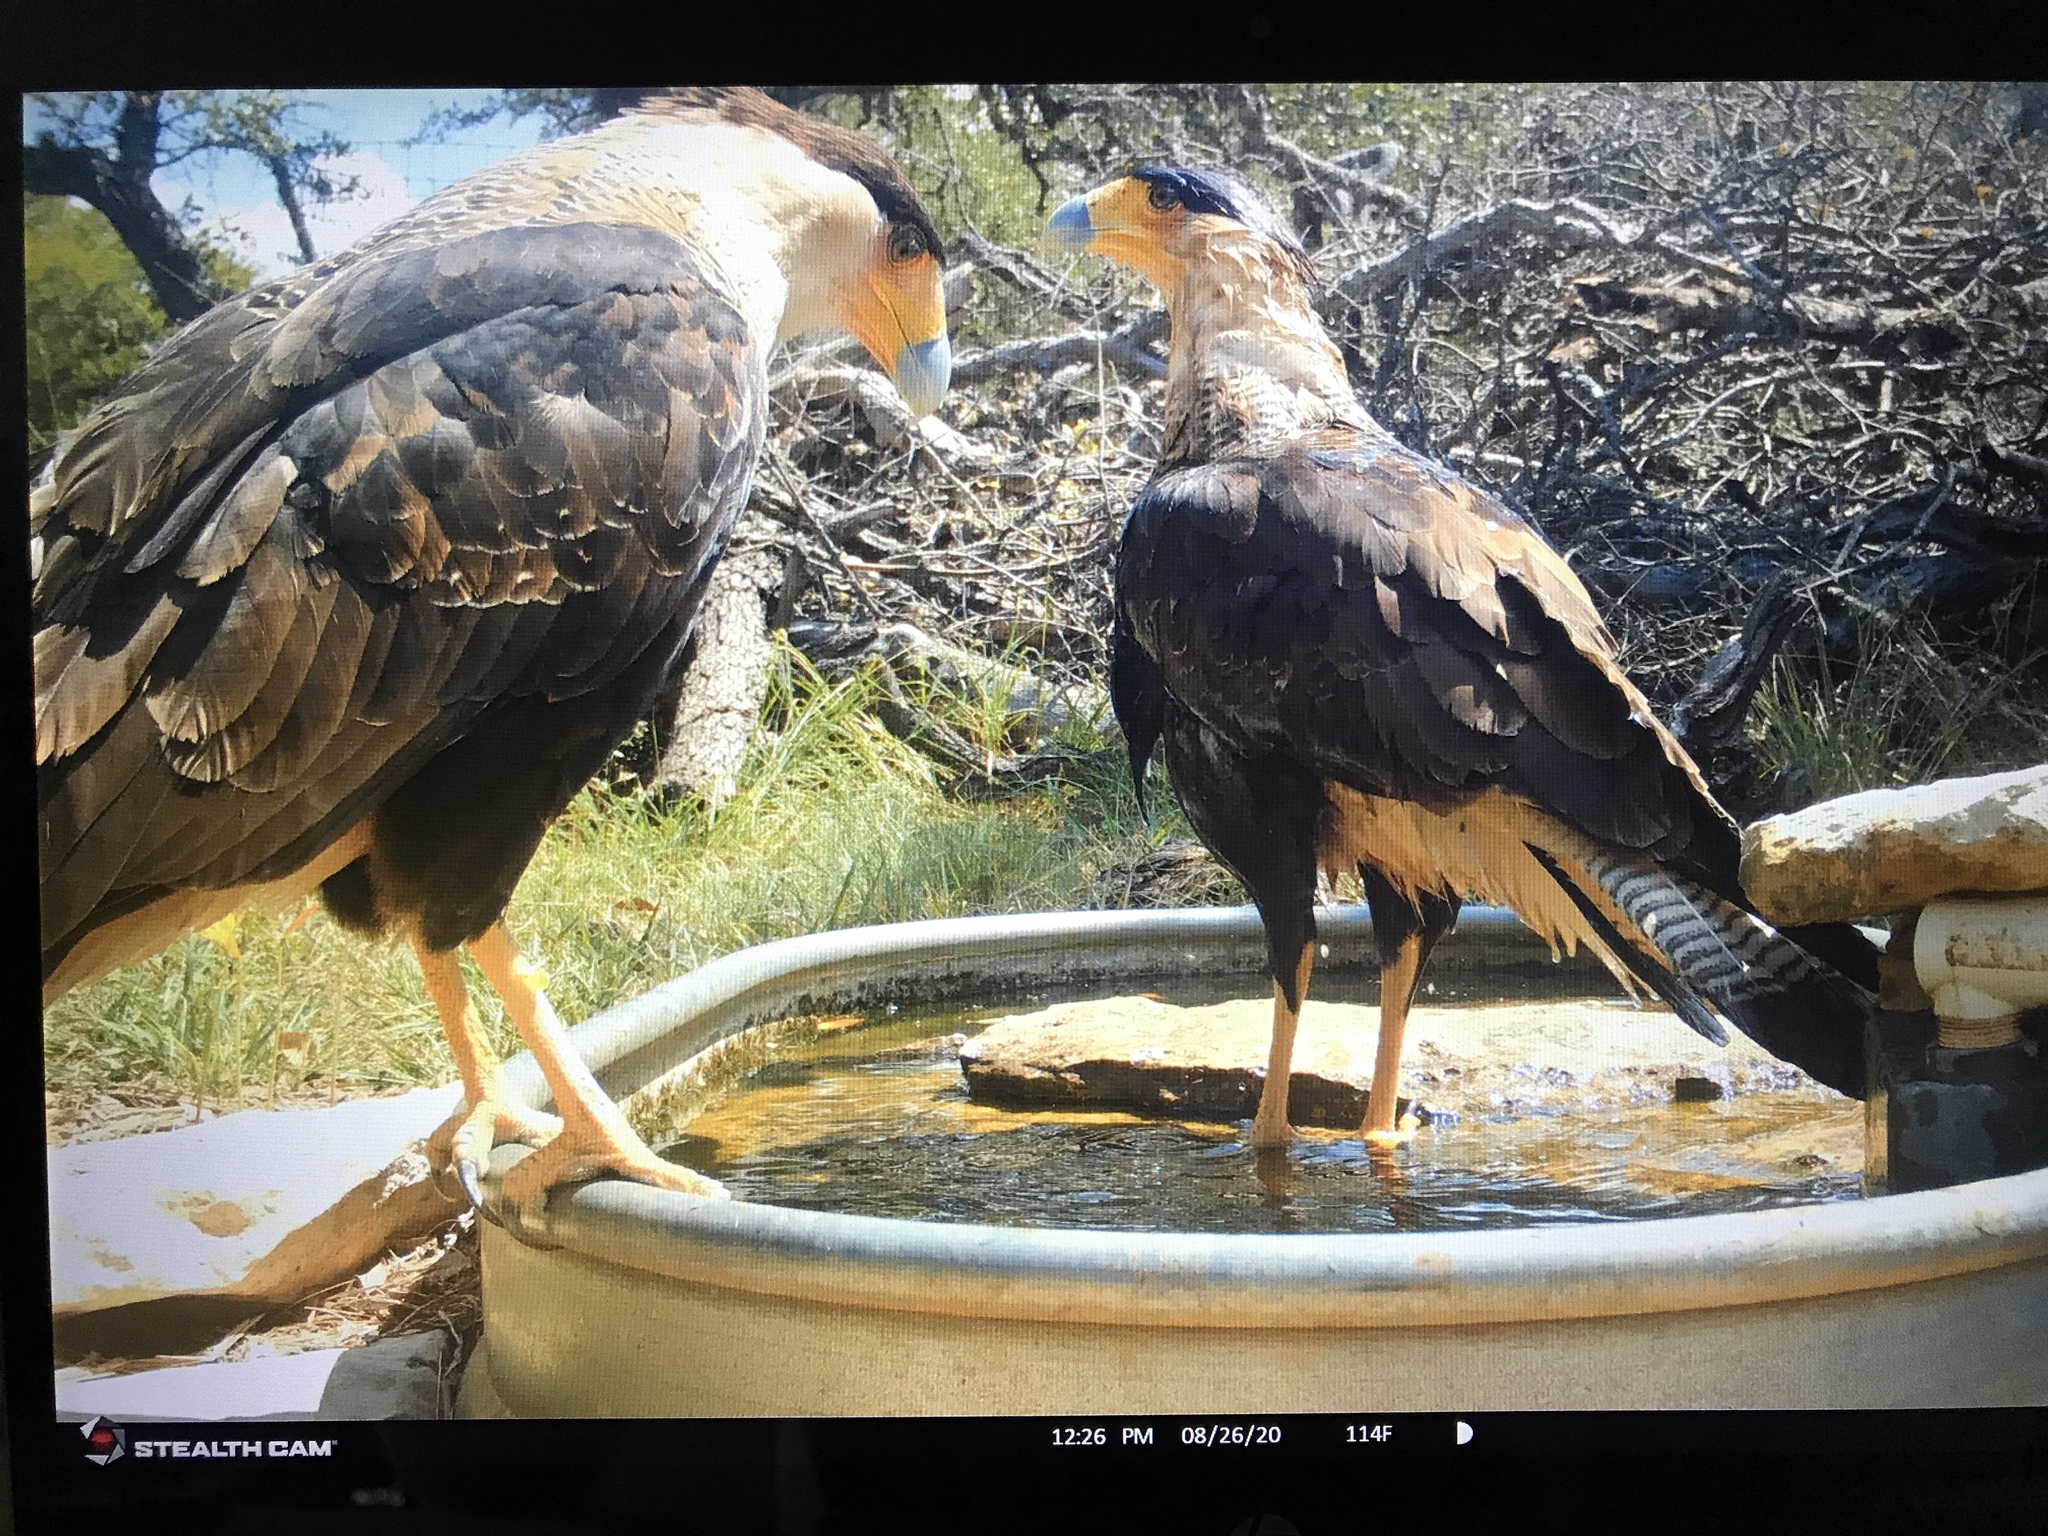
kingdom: Animalia
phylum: Chordata
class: Aves
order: Falconiformes
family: Falconidae
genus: Caracara
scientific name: Caracara plancus
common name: Southern caracara
